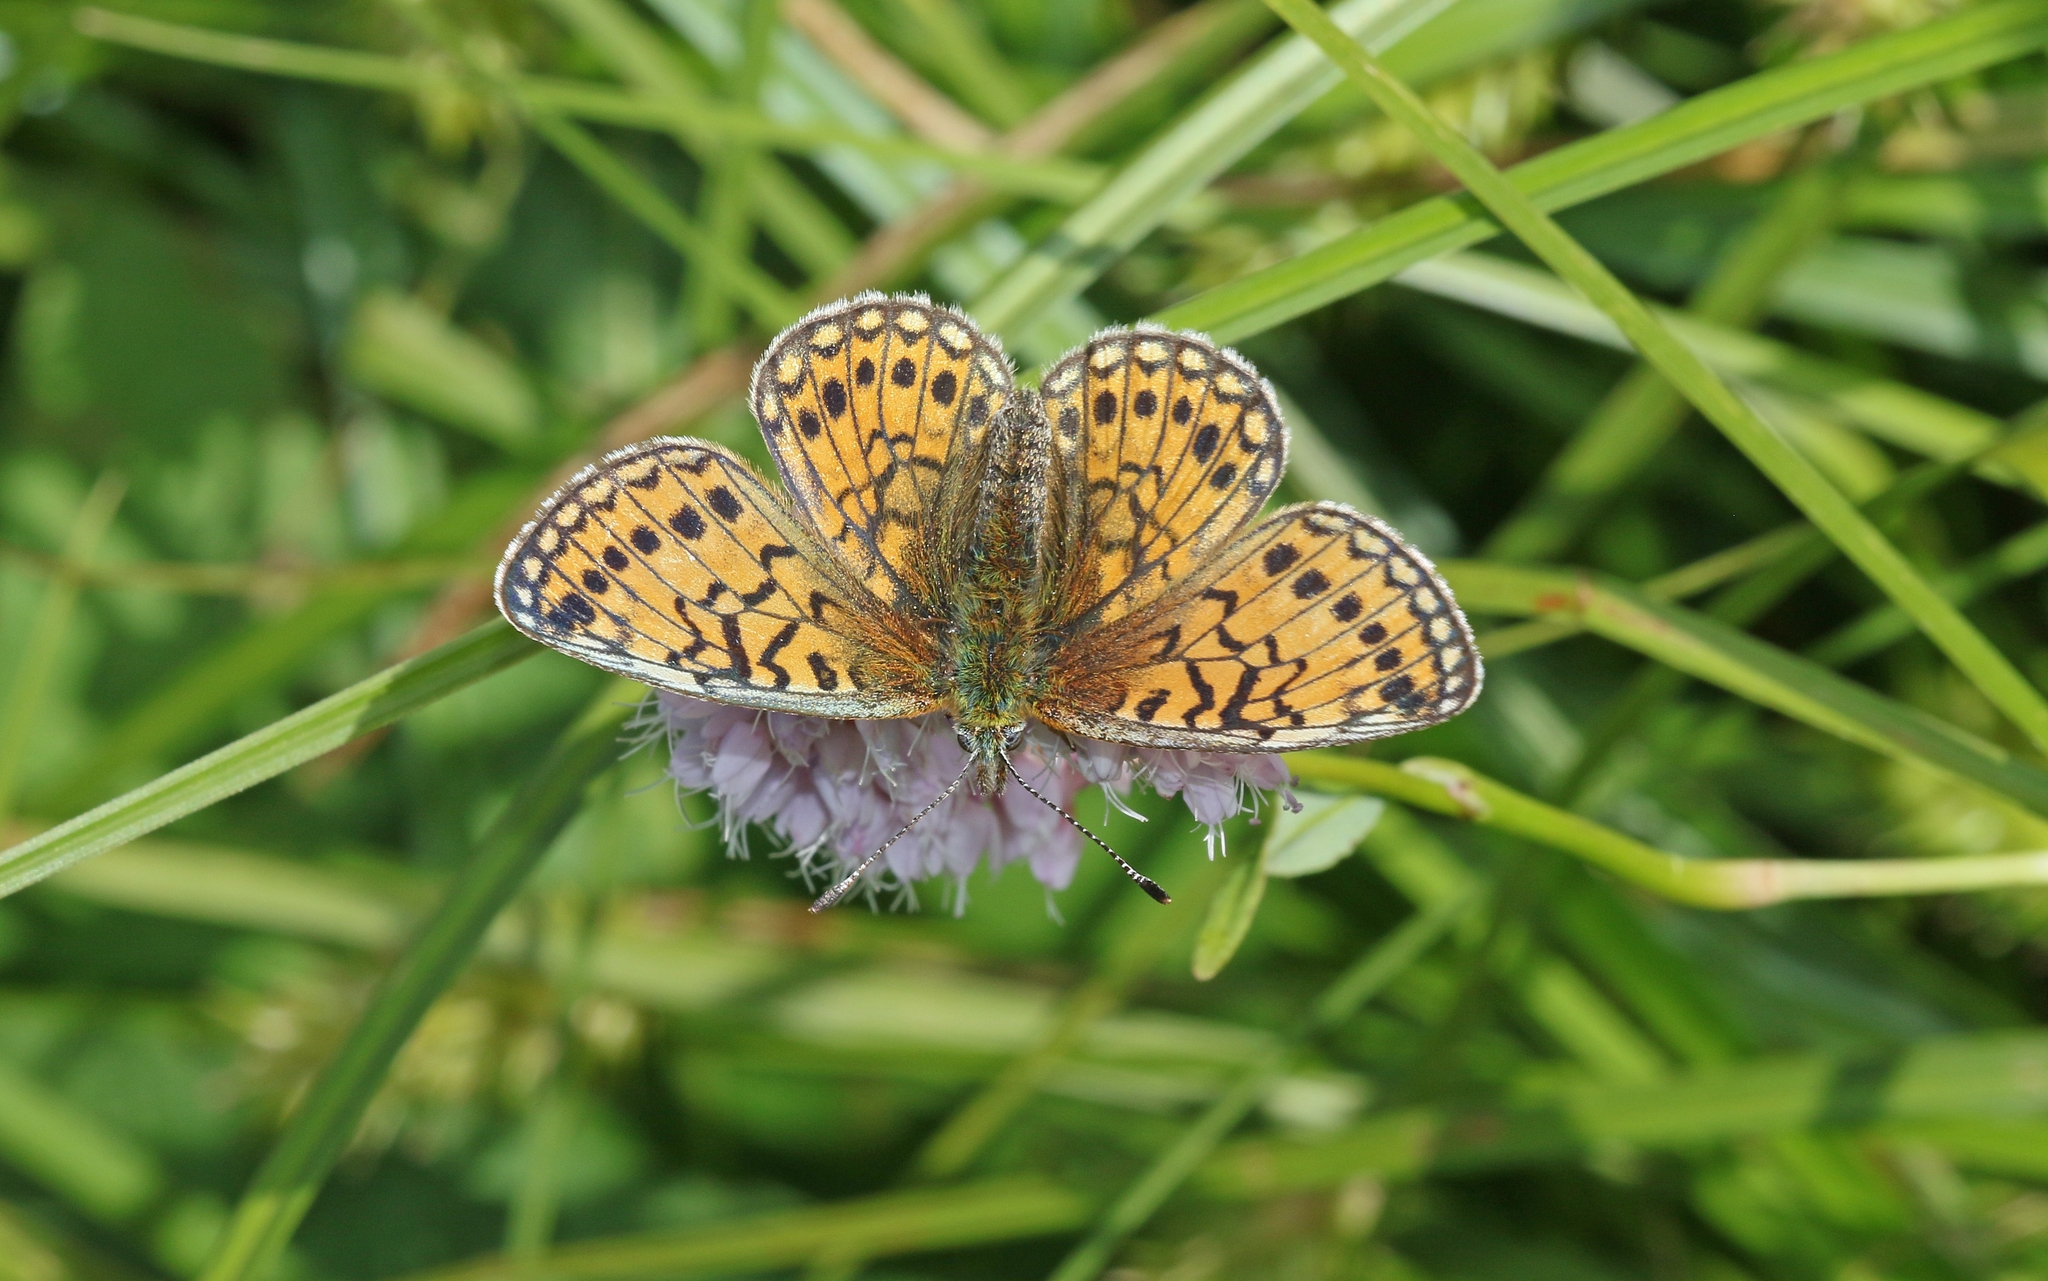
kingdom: Animalia
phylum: Arthropoda
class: Insecta
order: Lepidoptera
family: Nymphalidae
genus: Boloria
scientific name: Boloria eunomia
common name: Bog fritillary
